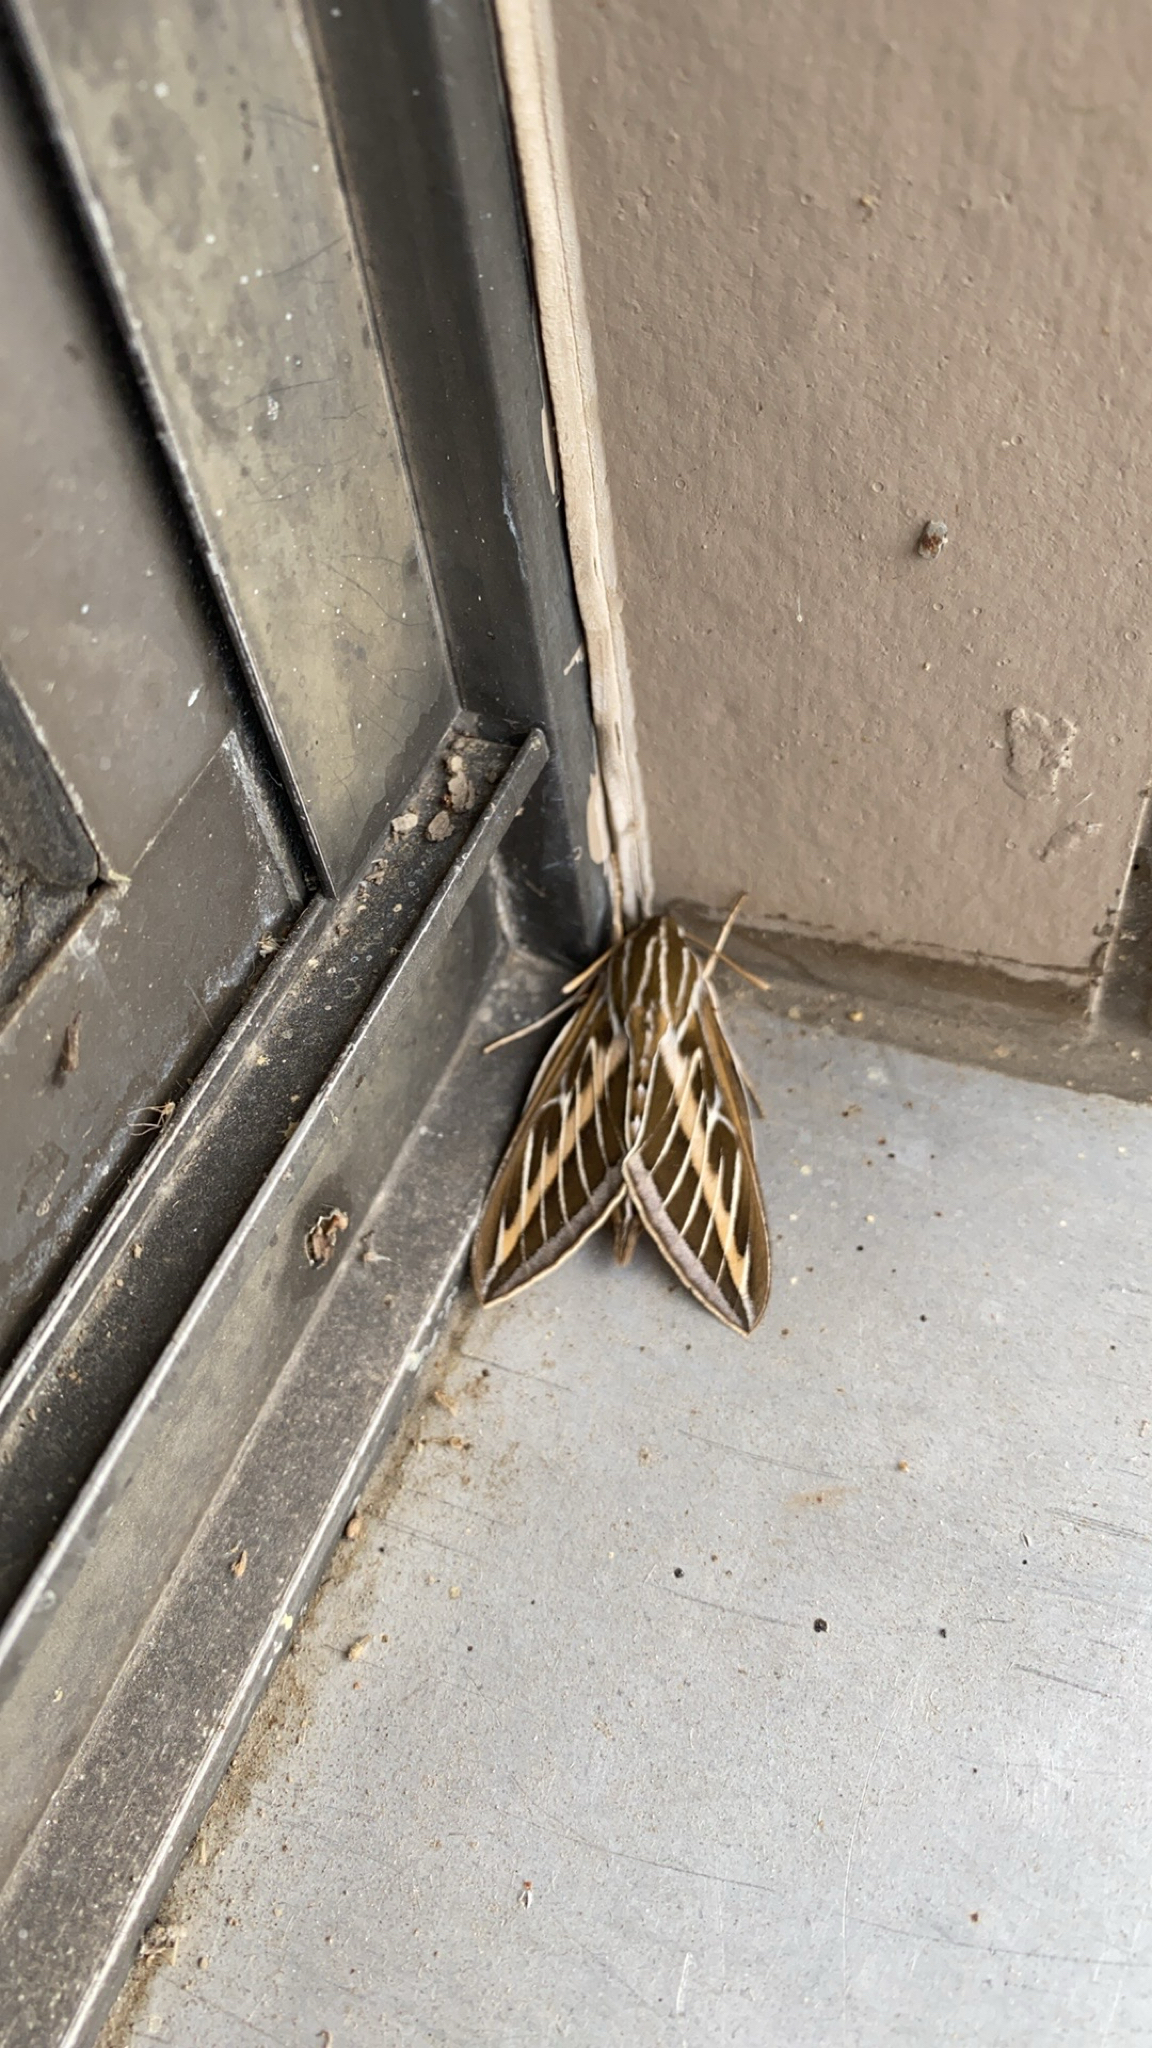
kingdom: Animalia
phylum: Arthropoda
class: Insecta
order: Lepidoptera
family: Sphingidae
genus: Hyles
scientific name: Hyles lineata
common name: White-lined sphinx
